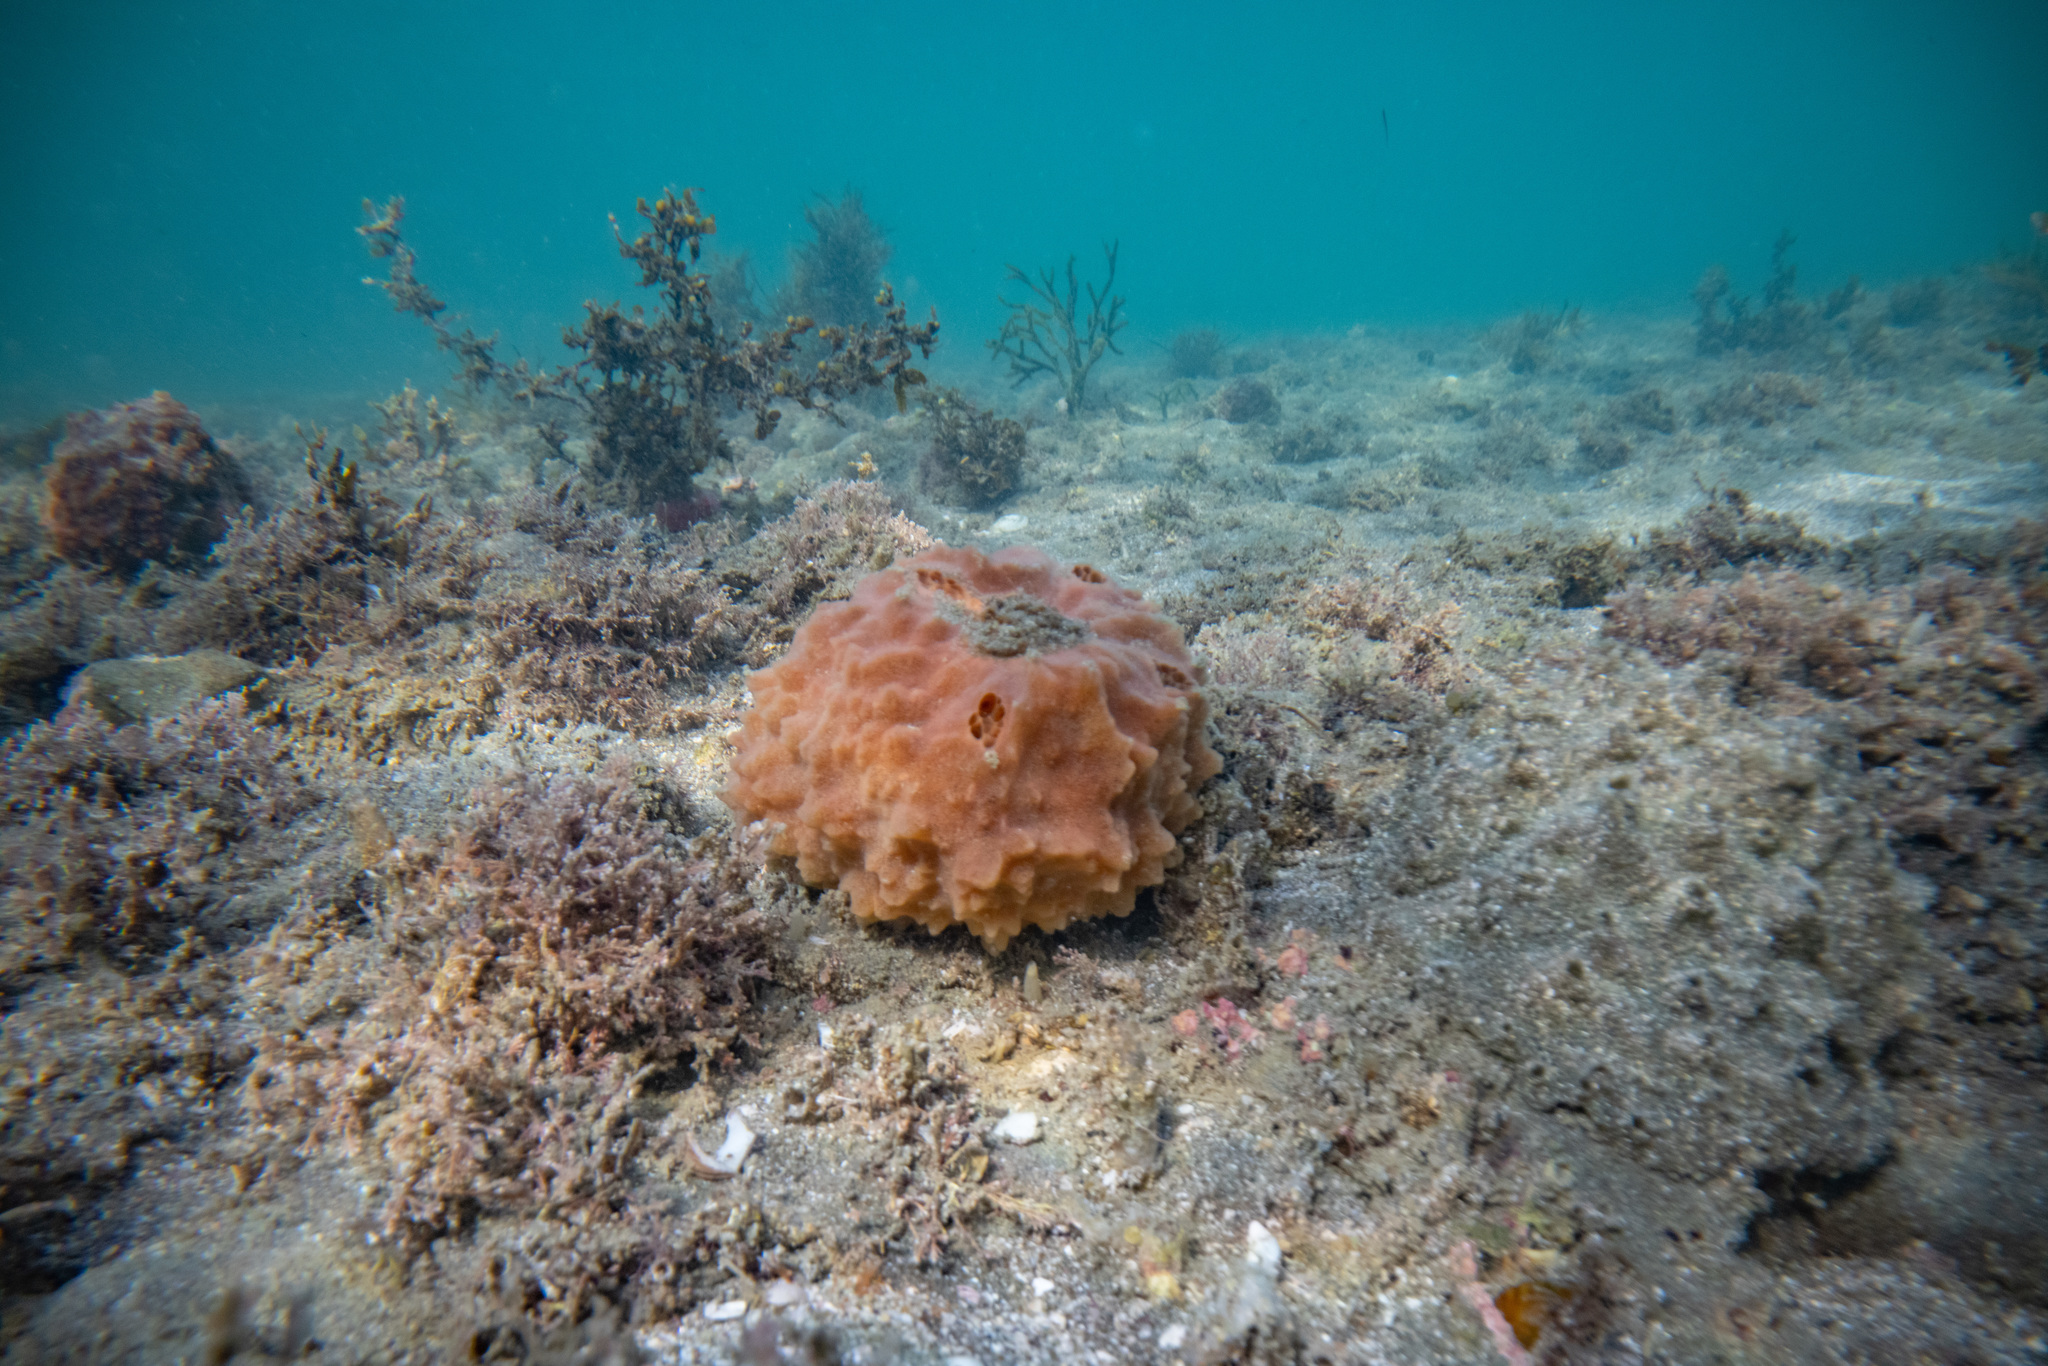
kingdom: Animalia
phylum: Porifera
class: Demospongiae
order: Suberitida
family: Suberitidae
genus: Aaptos
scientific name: Aaptos tenta
